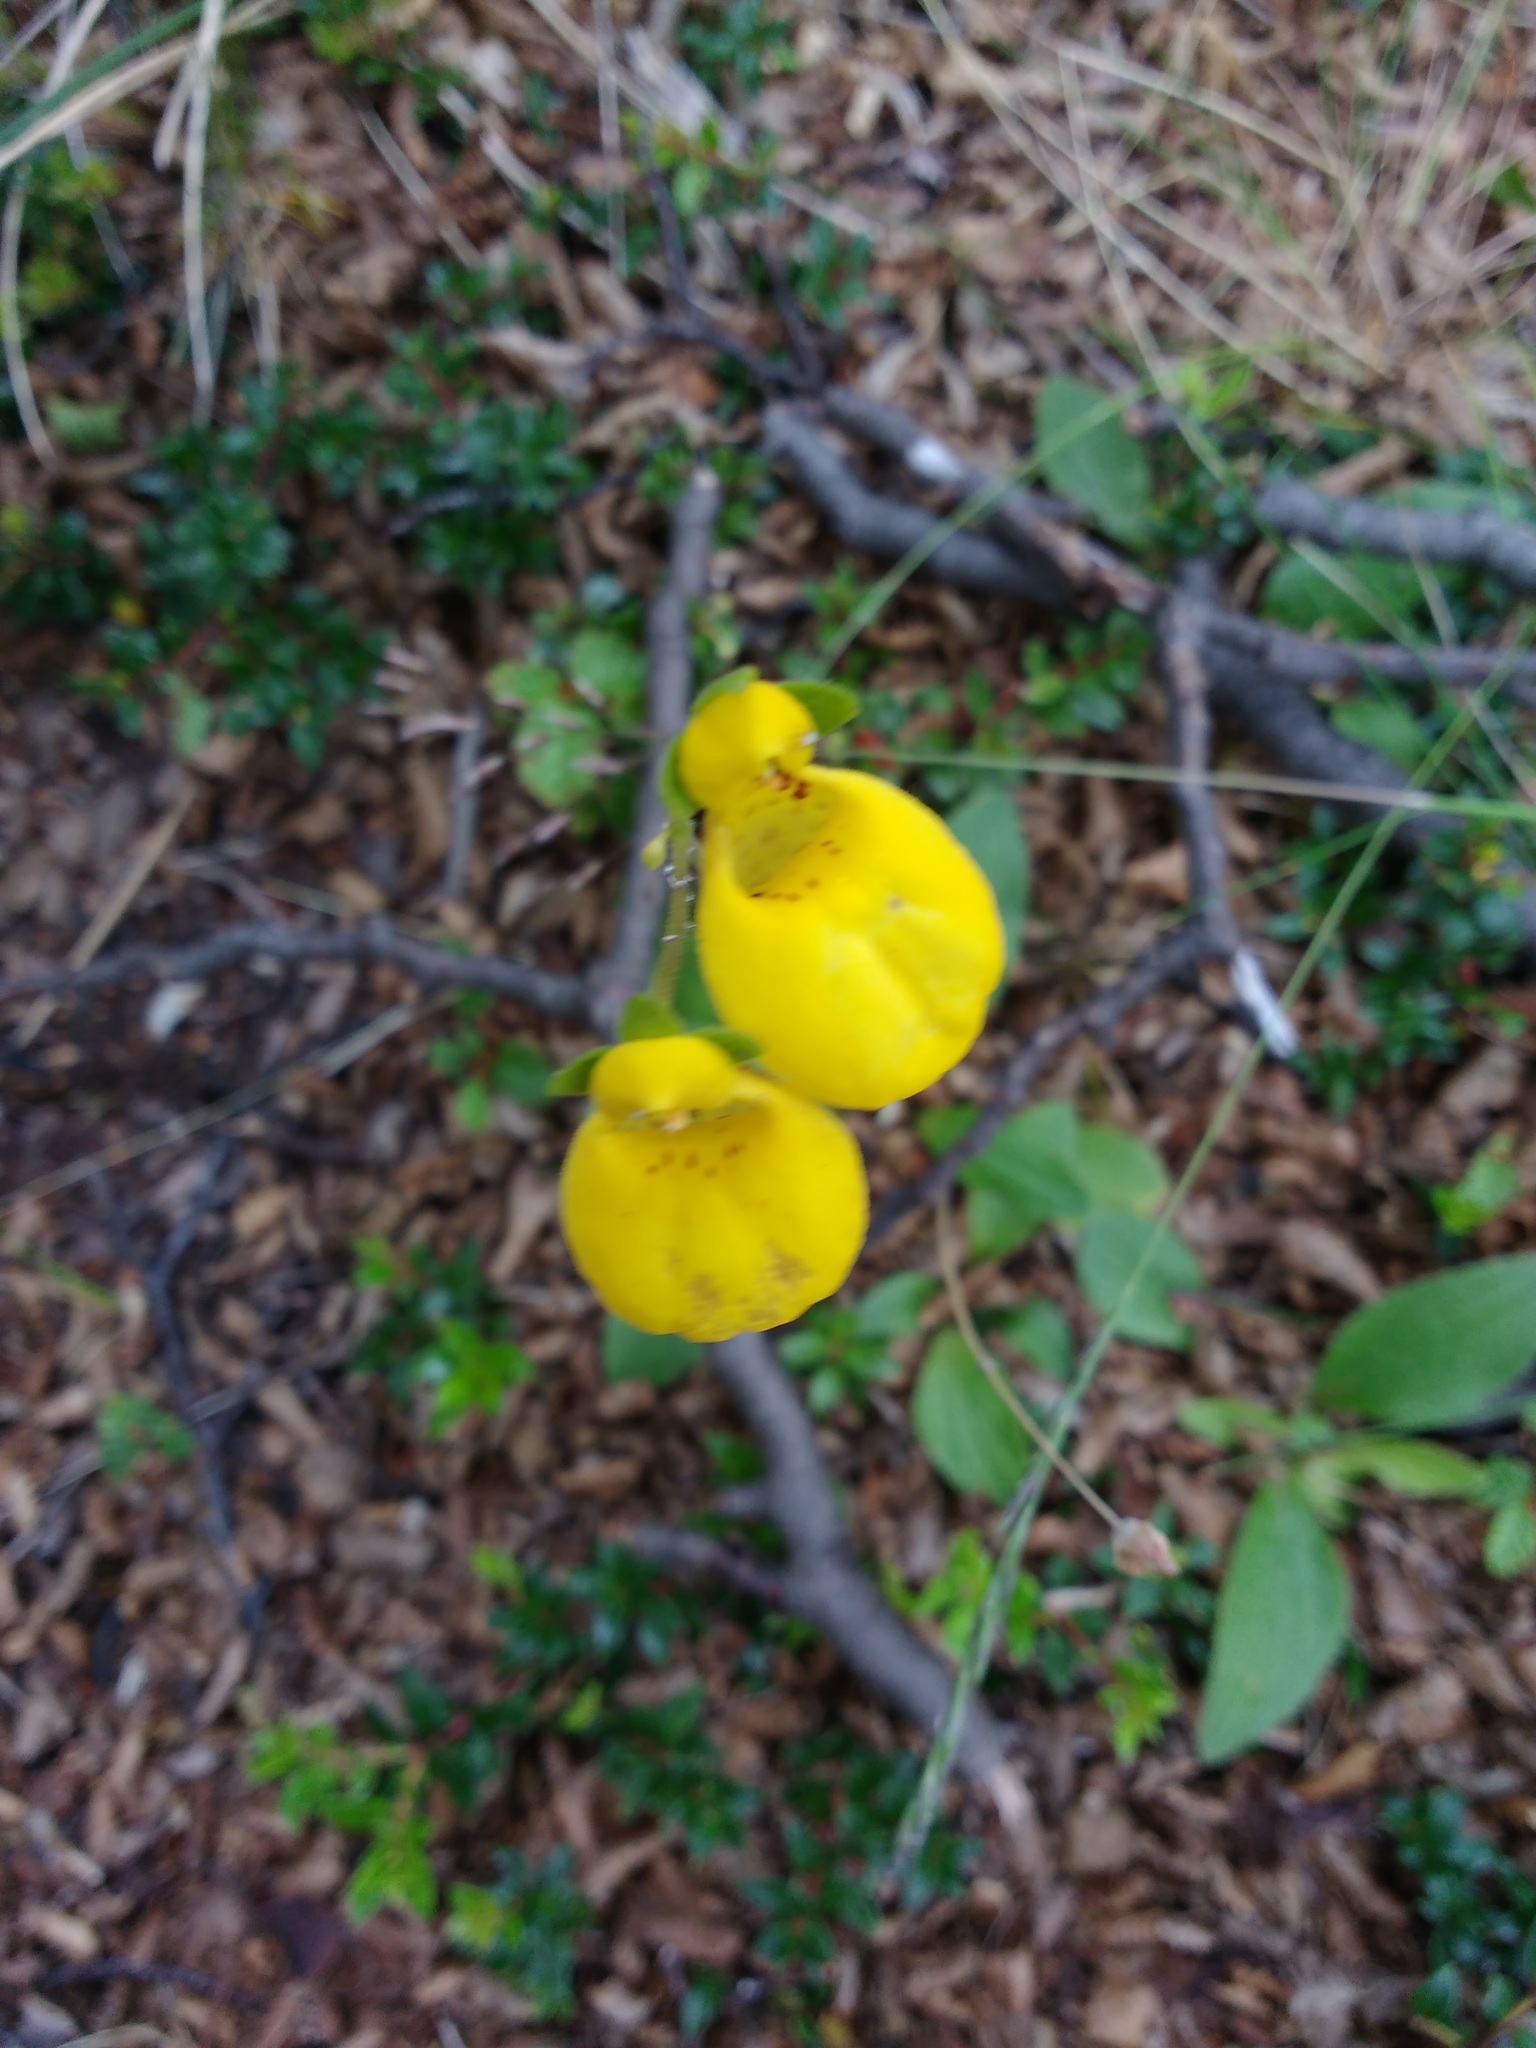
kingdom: Plantae
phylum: Tracheophyta
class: Magnoliopsida
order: Lamiales
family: Calceolariaceae
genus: Calceolaria
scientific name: Calceolaria biflora
